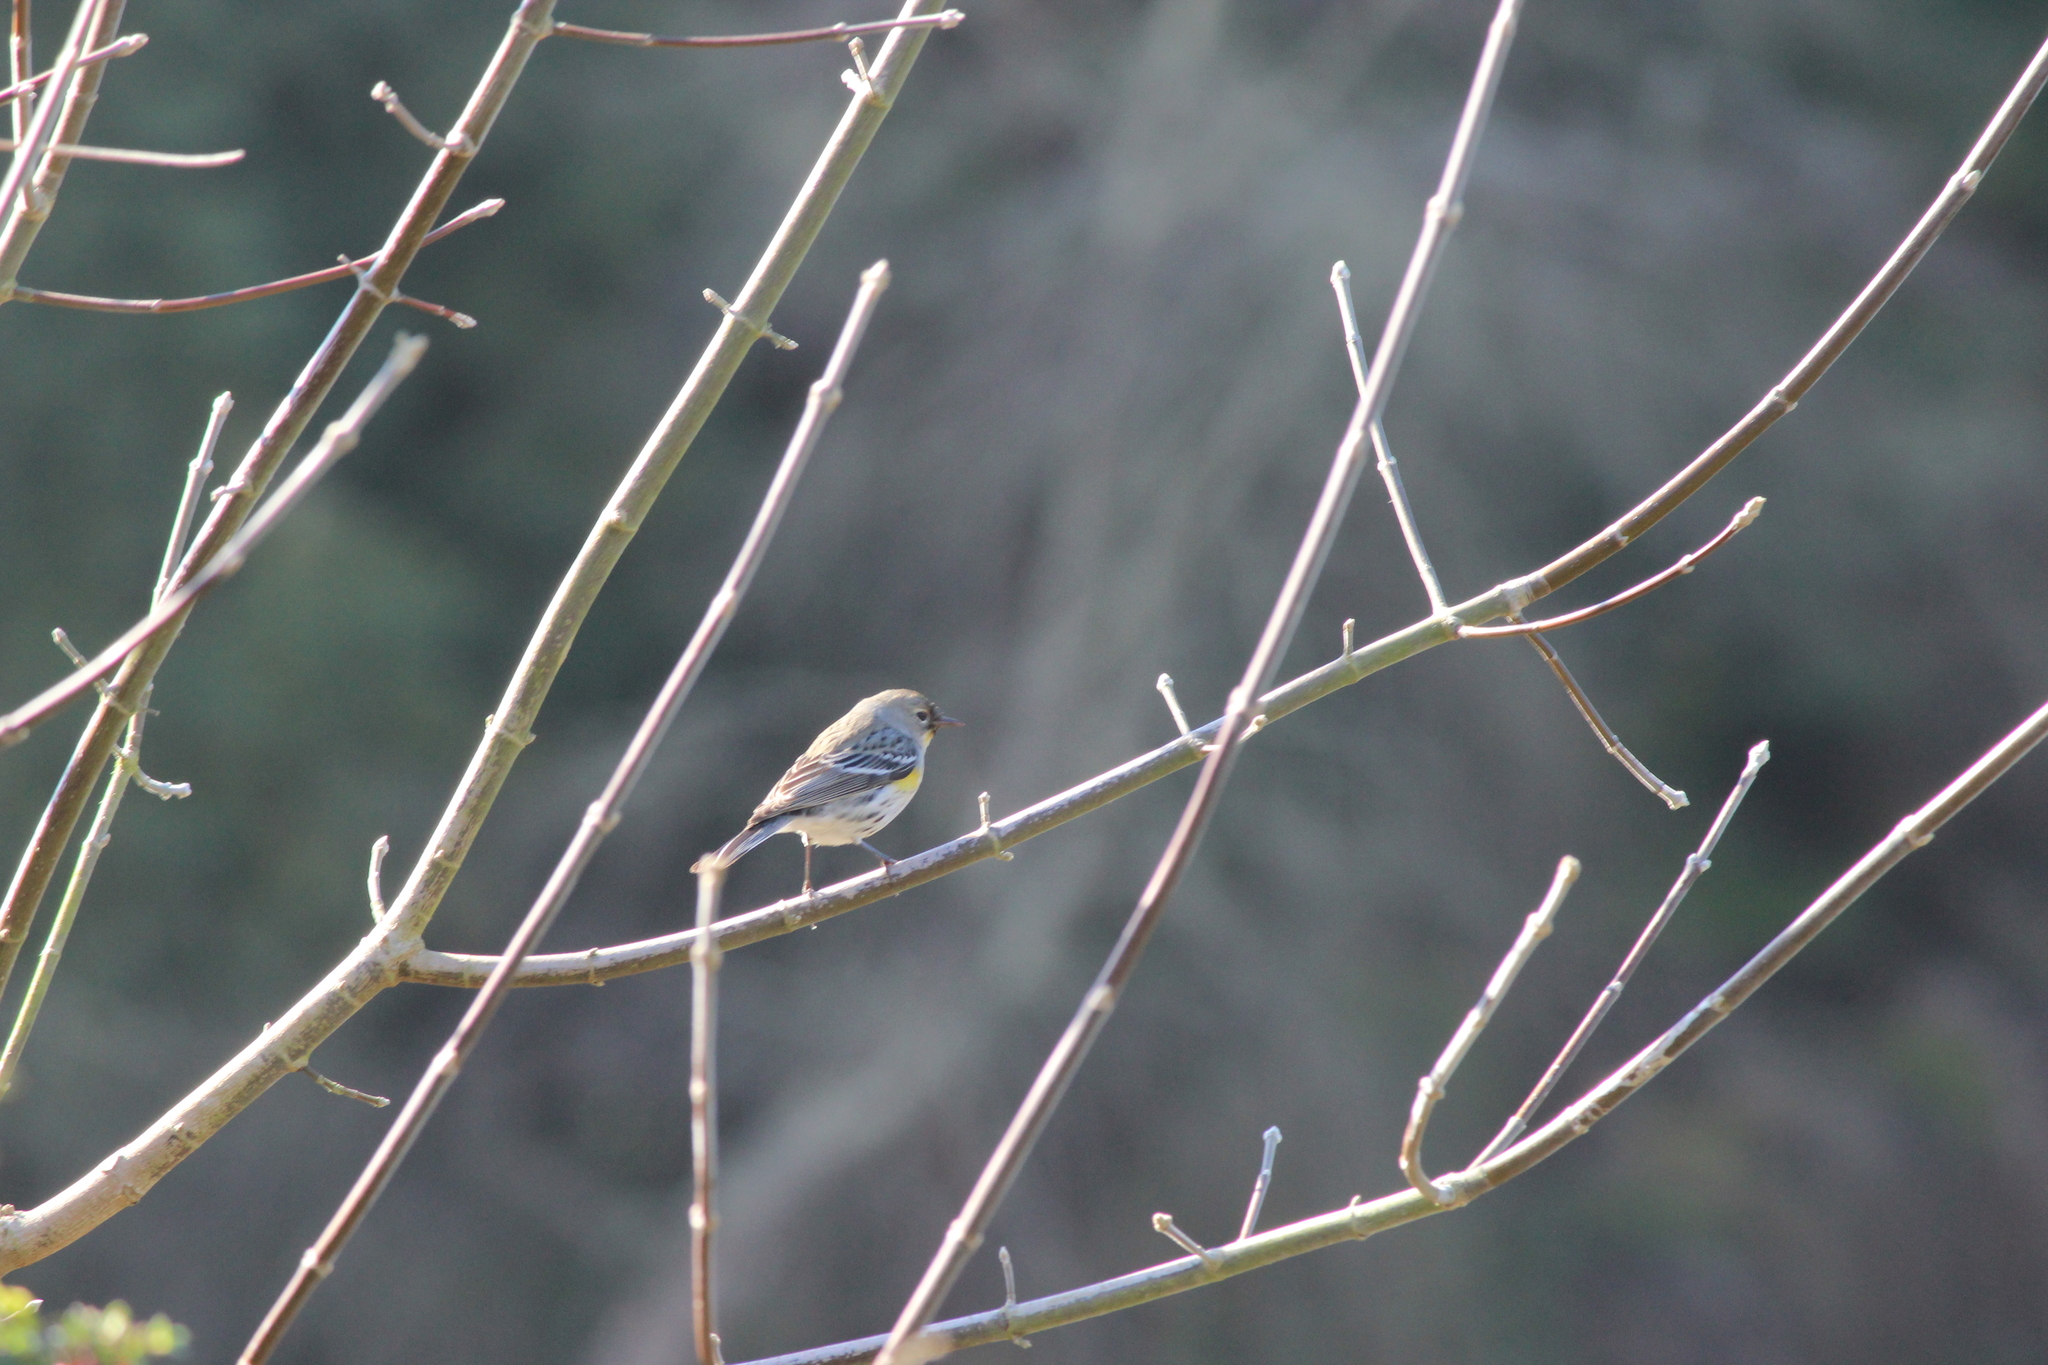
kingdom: Animalia
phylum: Chordata
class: Aves
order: Passeriformes
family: Parulidae
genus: Setophaga
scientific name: Setophaga coronata
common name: Myrtle warbler
